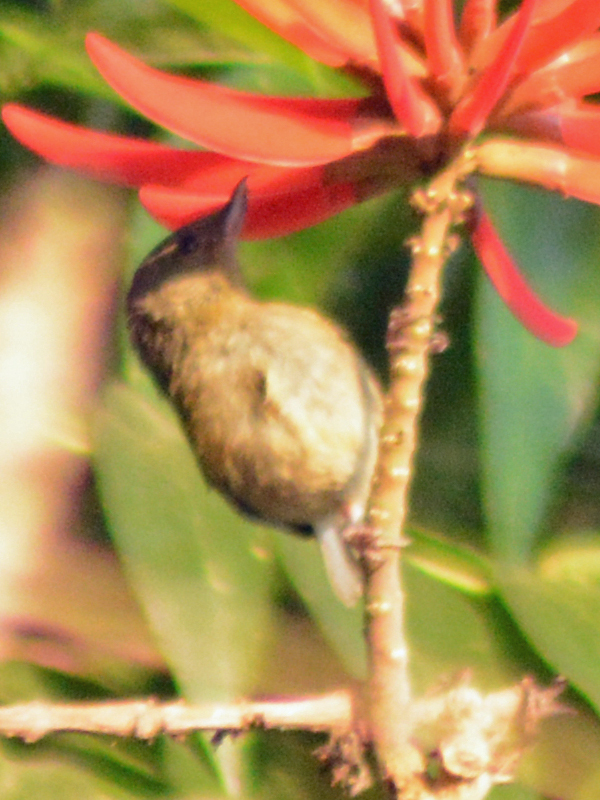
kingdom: Animalia
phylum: Chordata
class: Aves
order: Passeriformes
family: Thraupidae
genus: Diglossa
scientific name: Diglossa baritula
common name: Cinnamon-bellied flowerpiercer
